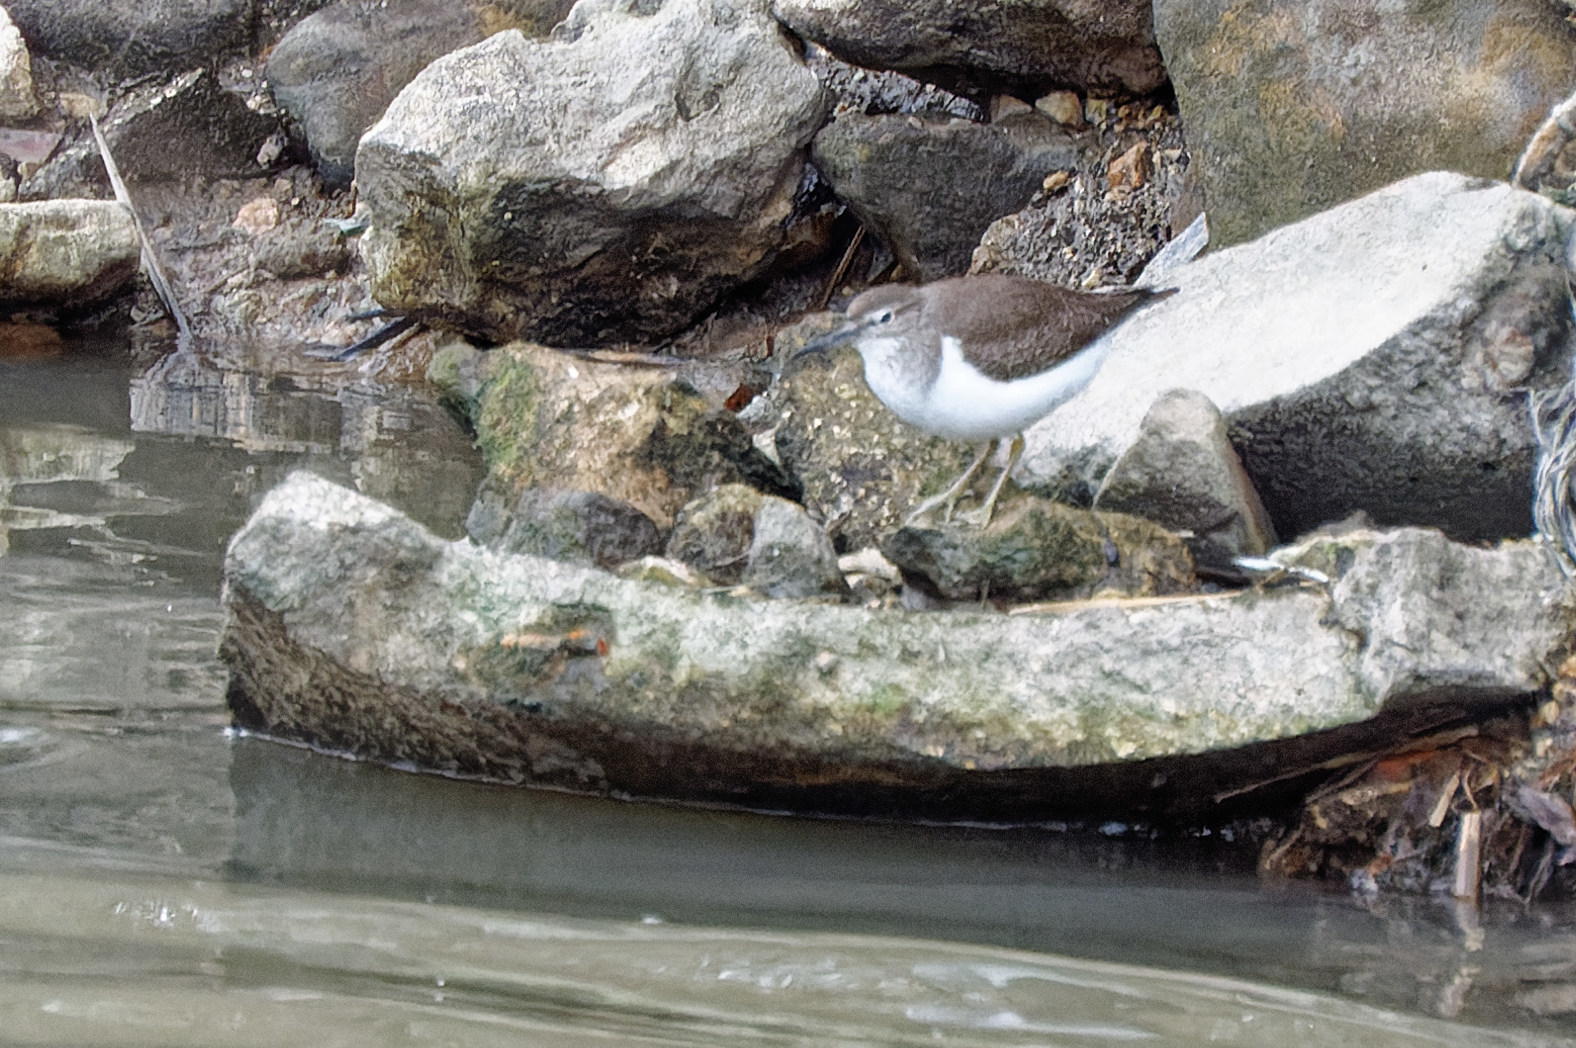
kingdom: Animalia
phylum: Chordata
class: Aves
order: Charadriiformes
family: Scolopacidae
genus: Actitis
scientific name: Actitis hypoleucos
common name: Common sandpiper
